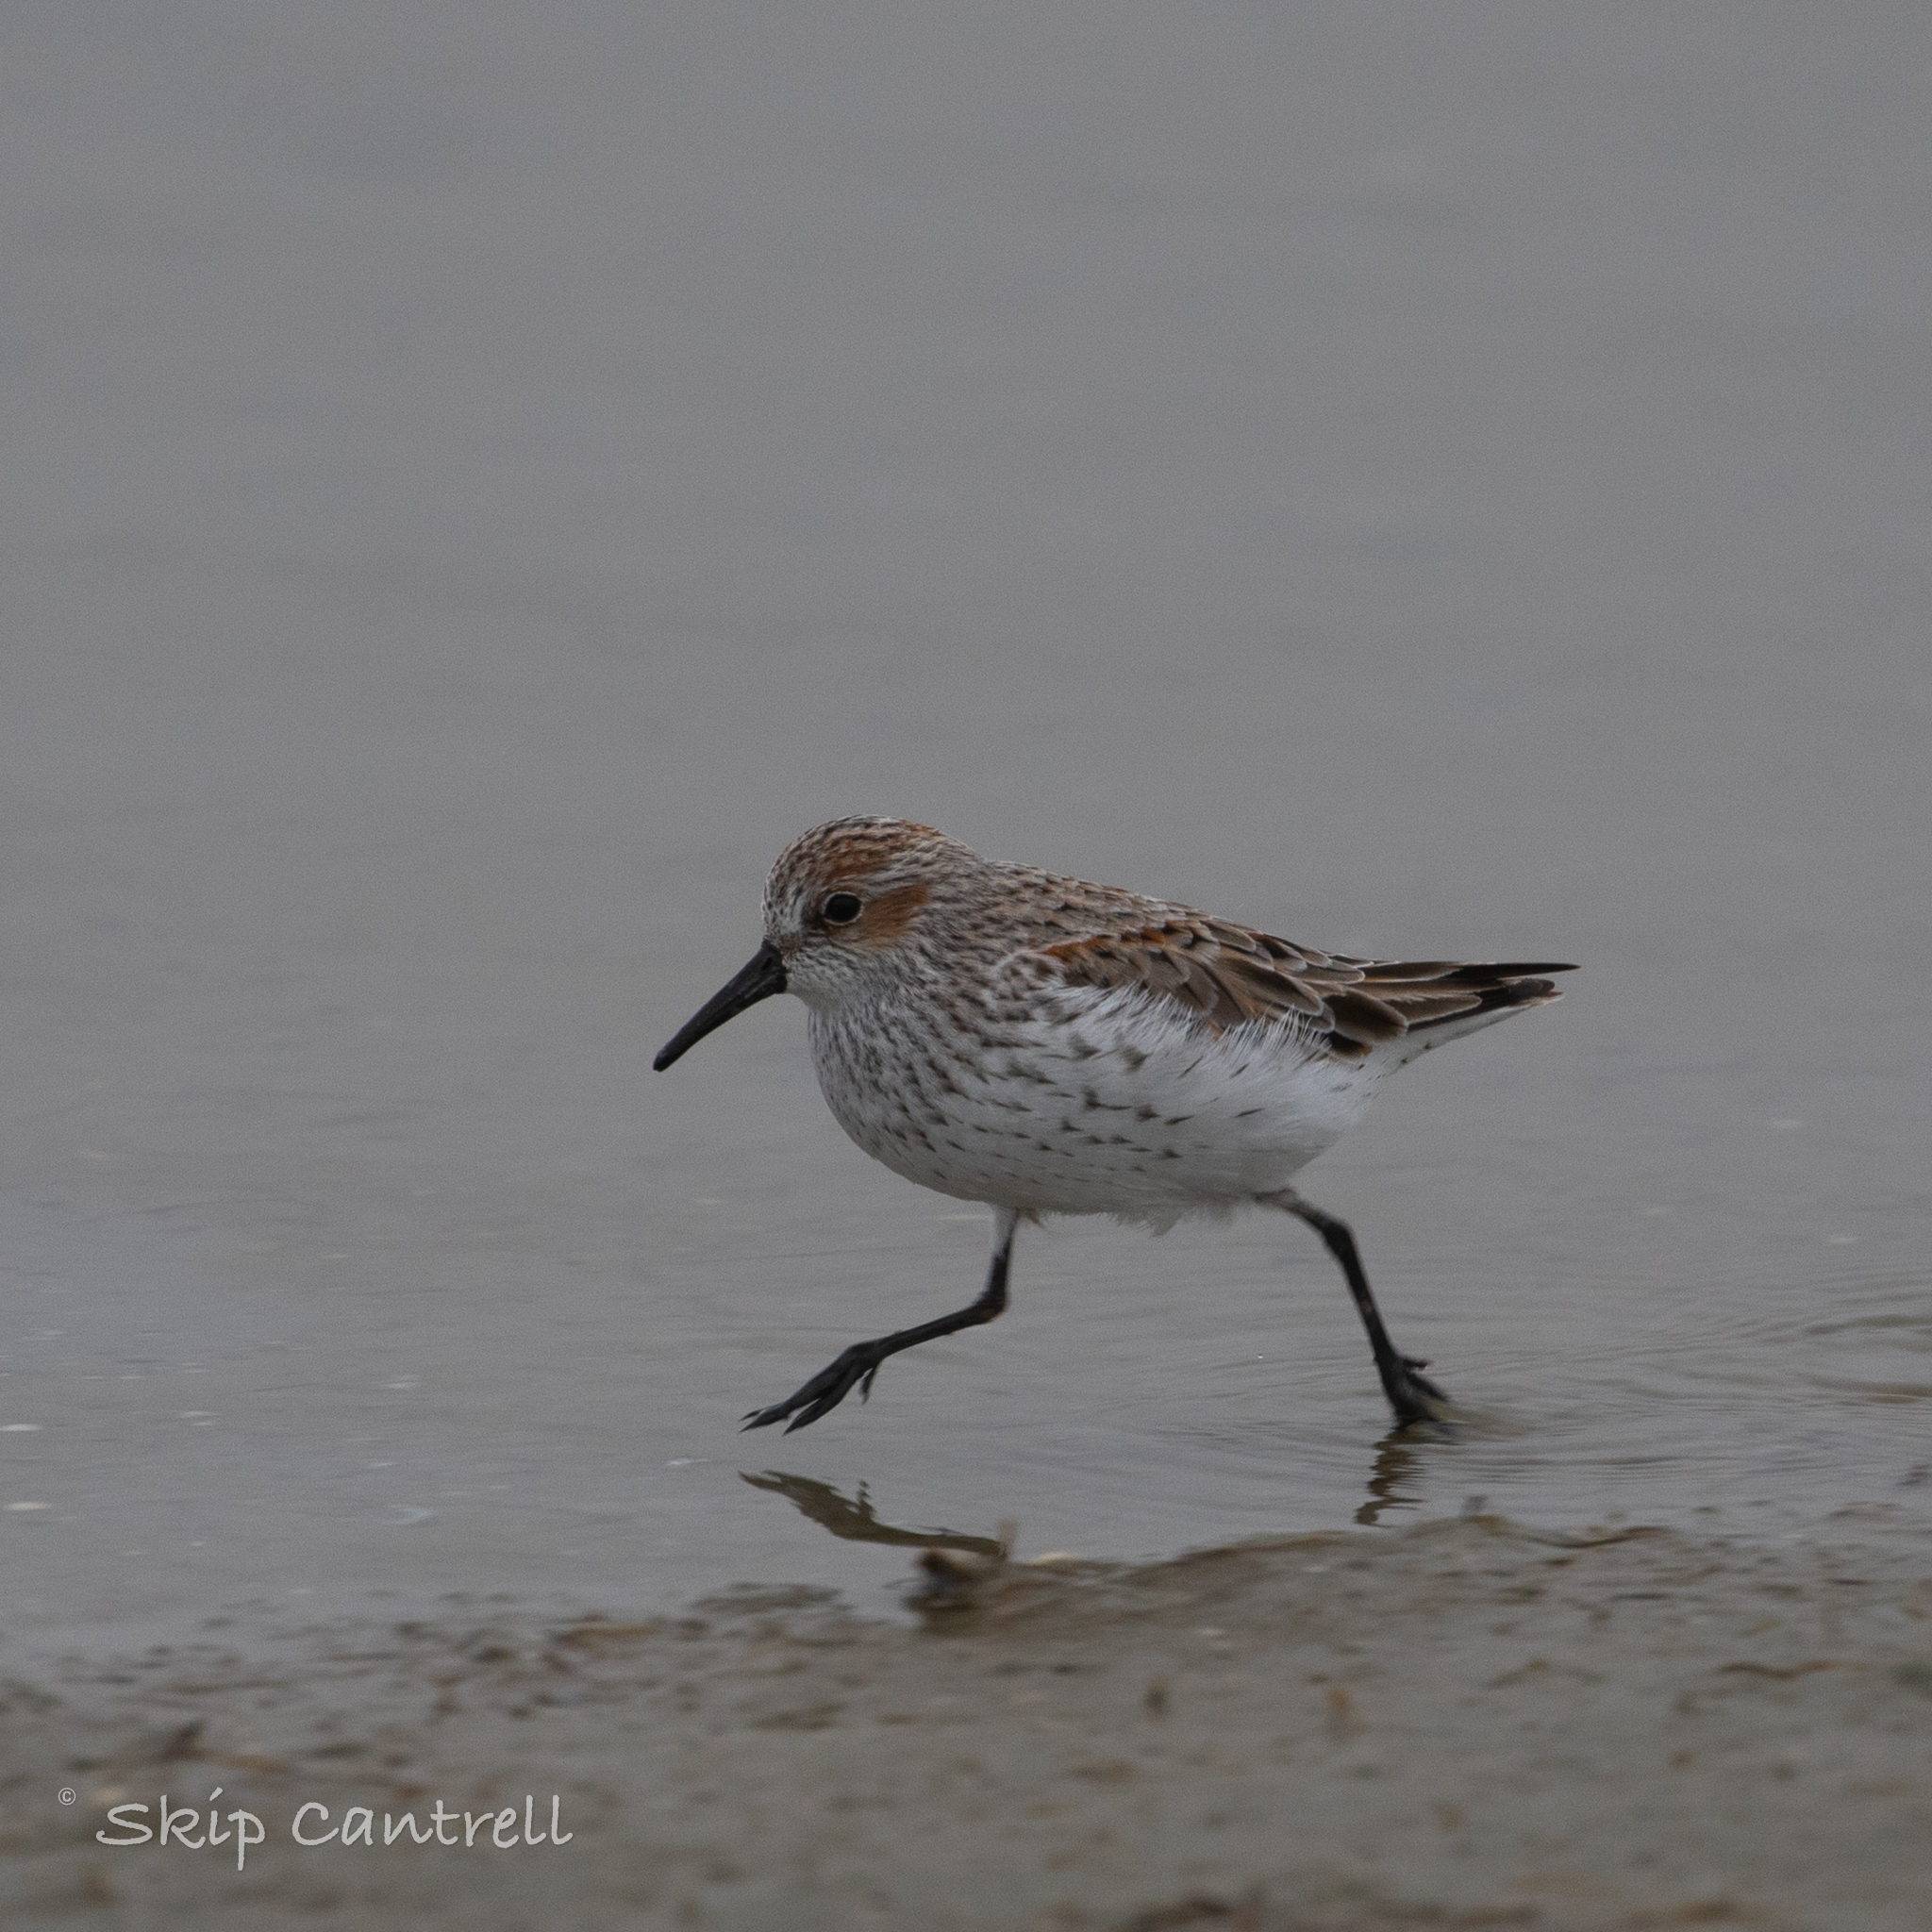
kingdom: Animalia
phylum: Chordata
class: Aves
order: Charadriiformes
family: Scolopacidae
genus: Calidris
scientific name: Calidris mauri
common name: Western sandpiper
